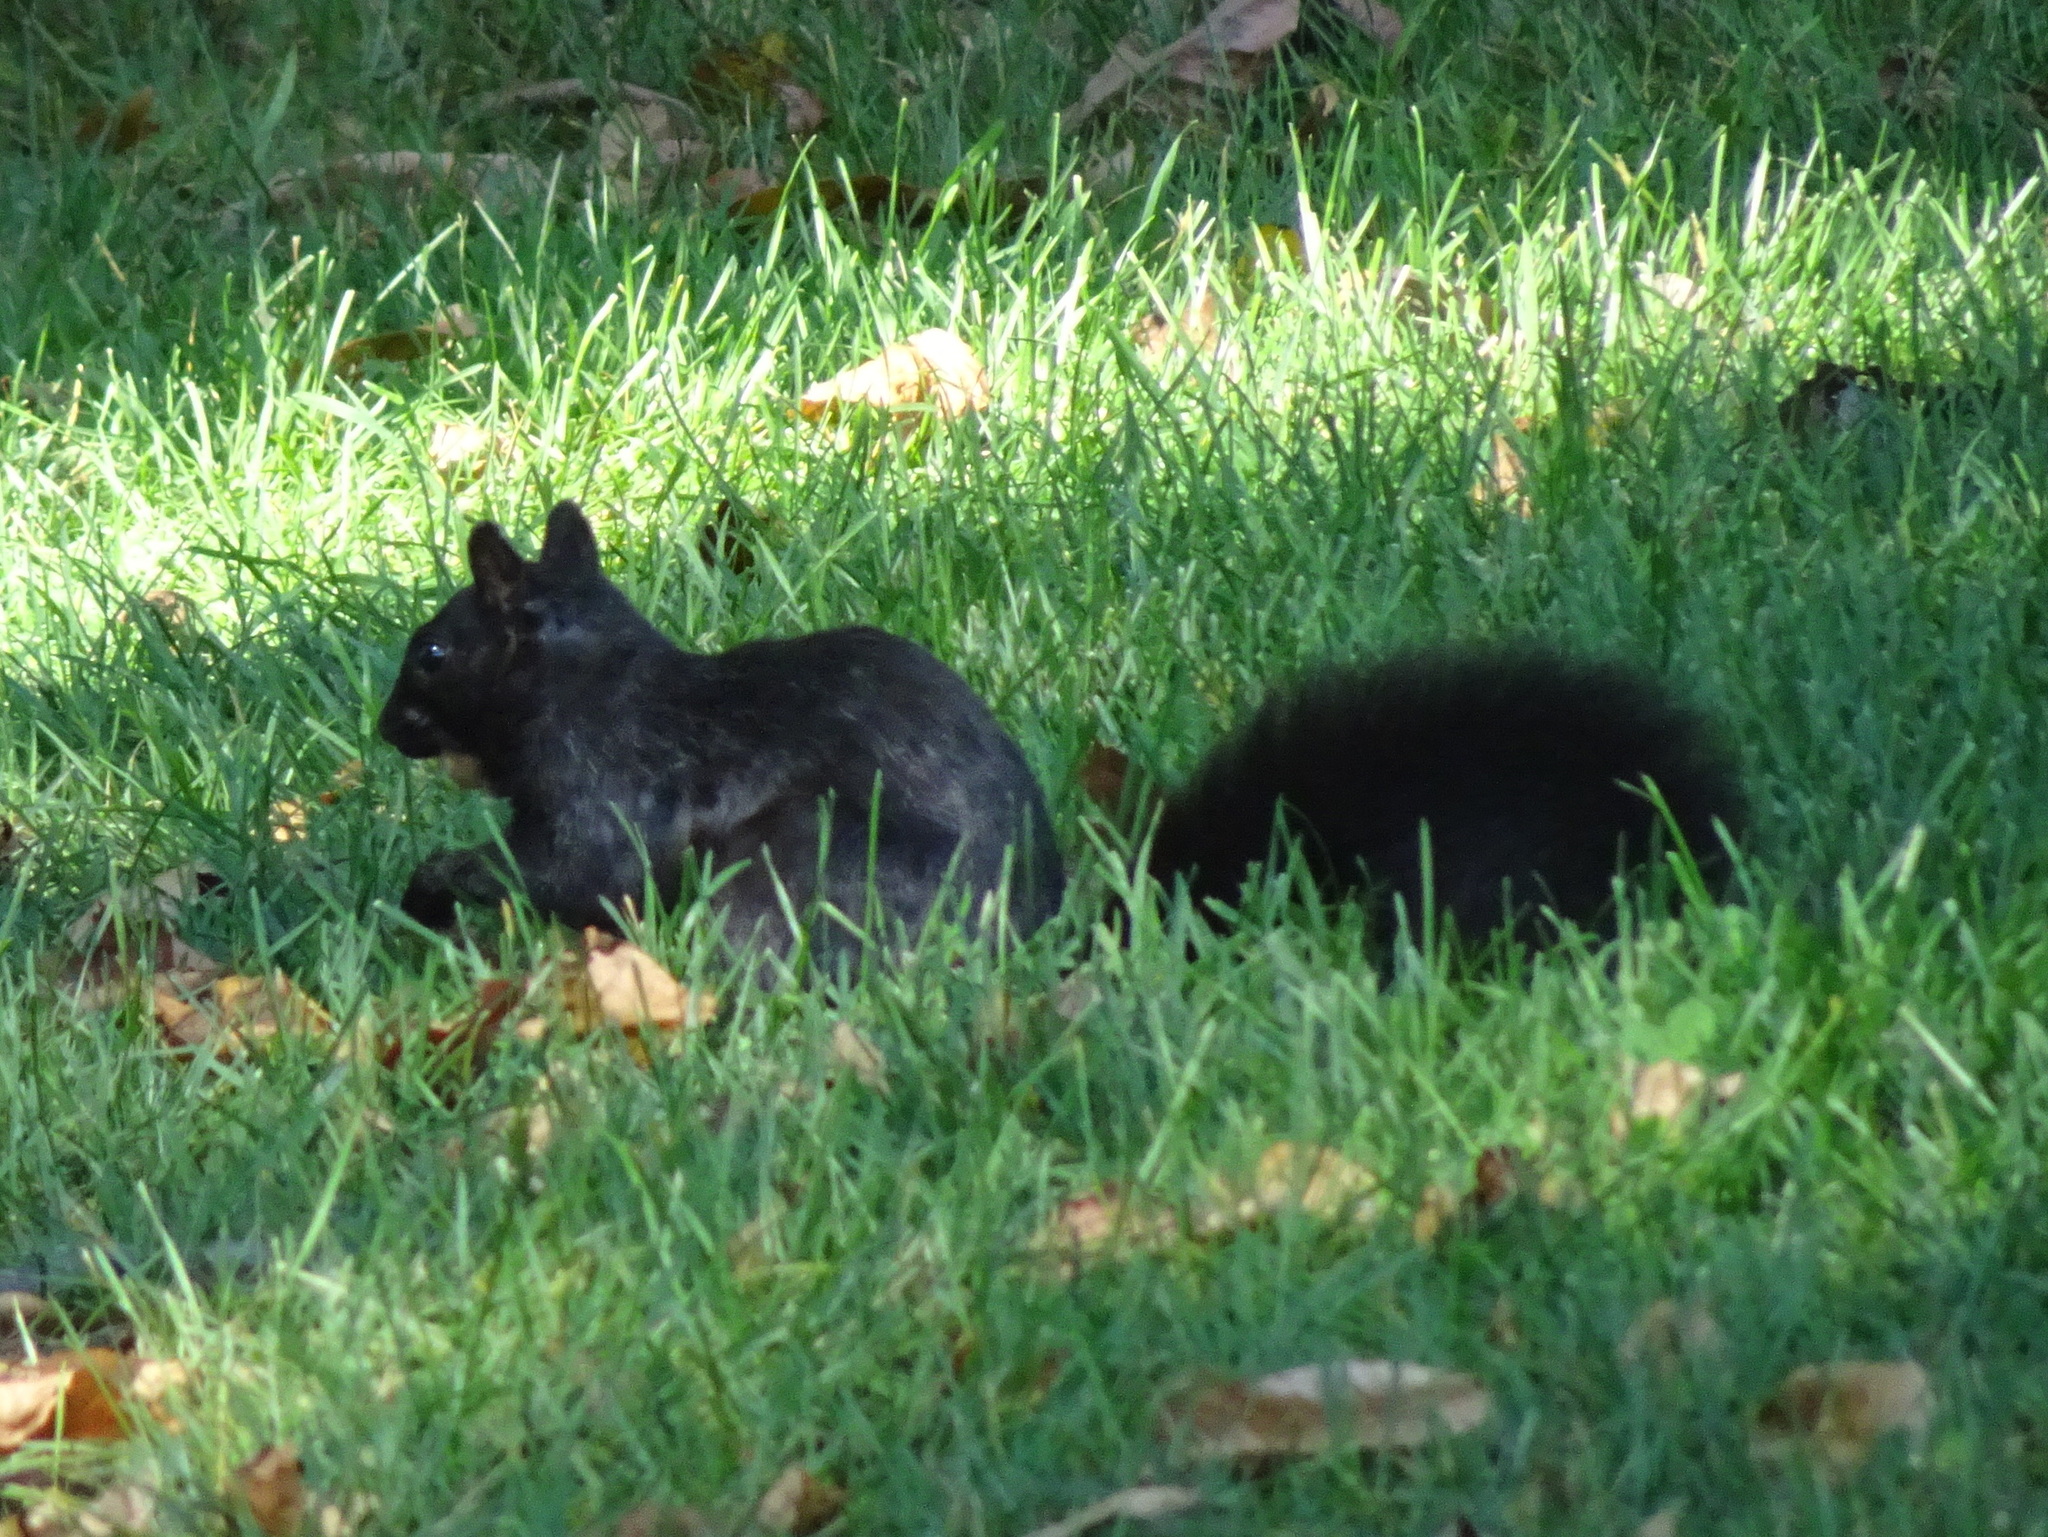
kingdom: Animalia
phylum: Chordata
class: Mammalia
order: Rodentia
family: Sciuridae
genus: Sciurus
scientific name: Sciurus carolinensis
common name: Eastern gray squirrel
